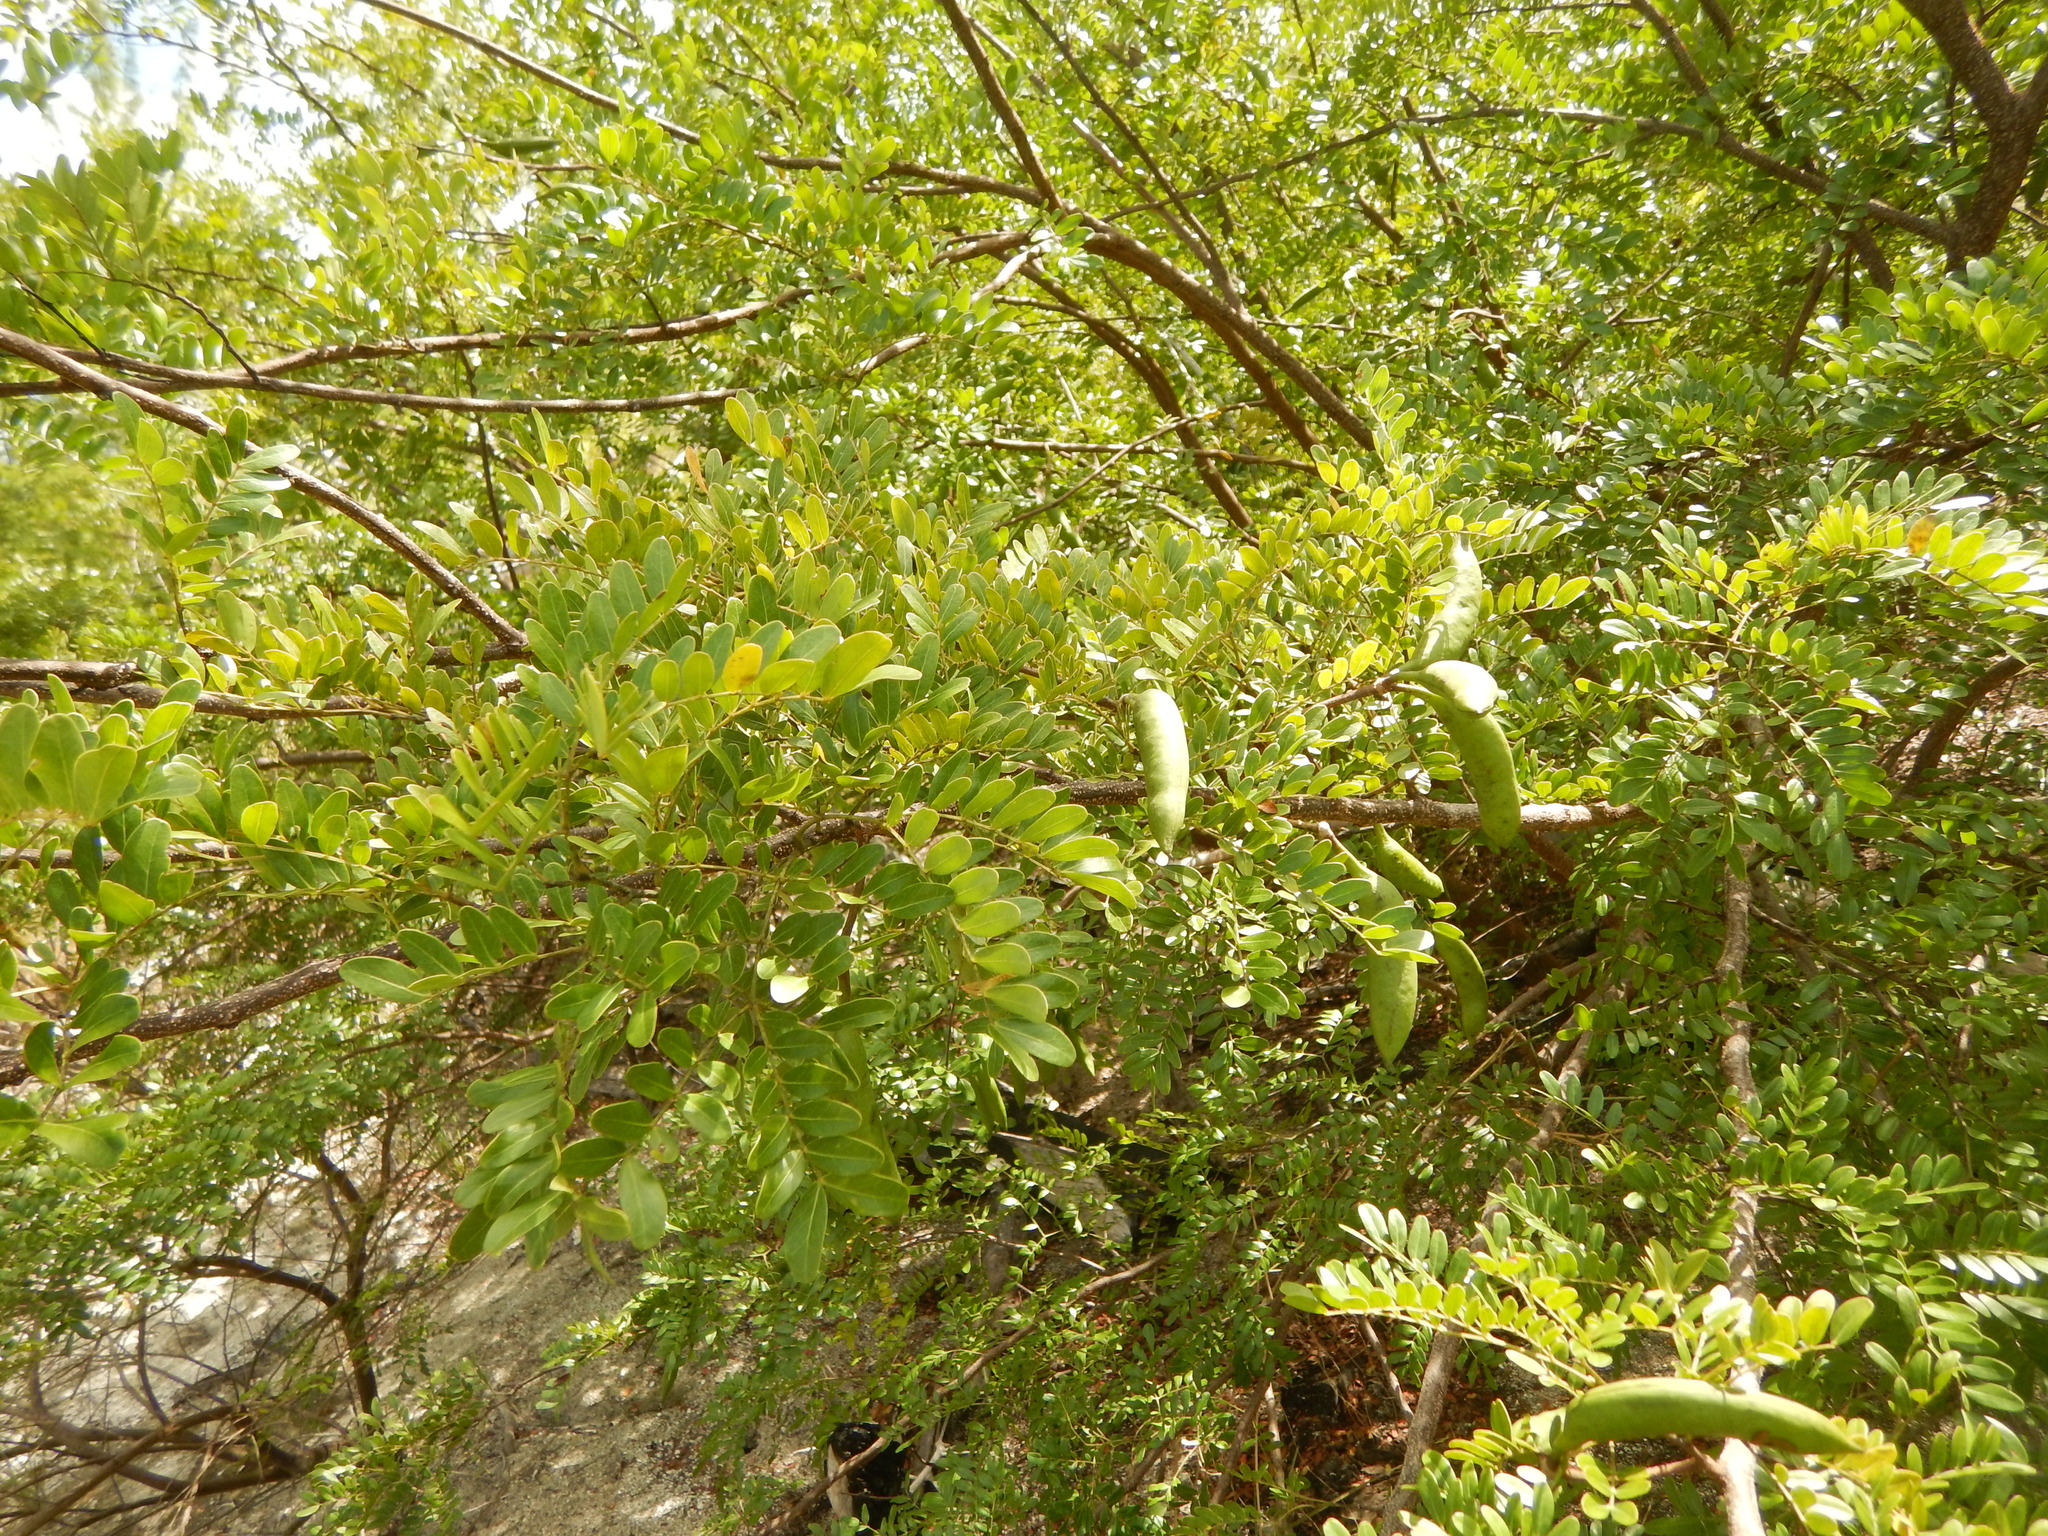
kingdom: Plantae
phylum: Tracheophyta
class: Magnoliopsida
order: Fabales
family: Fabaceae
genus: Vachellia
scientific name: Vachellia choriophylla
